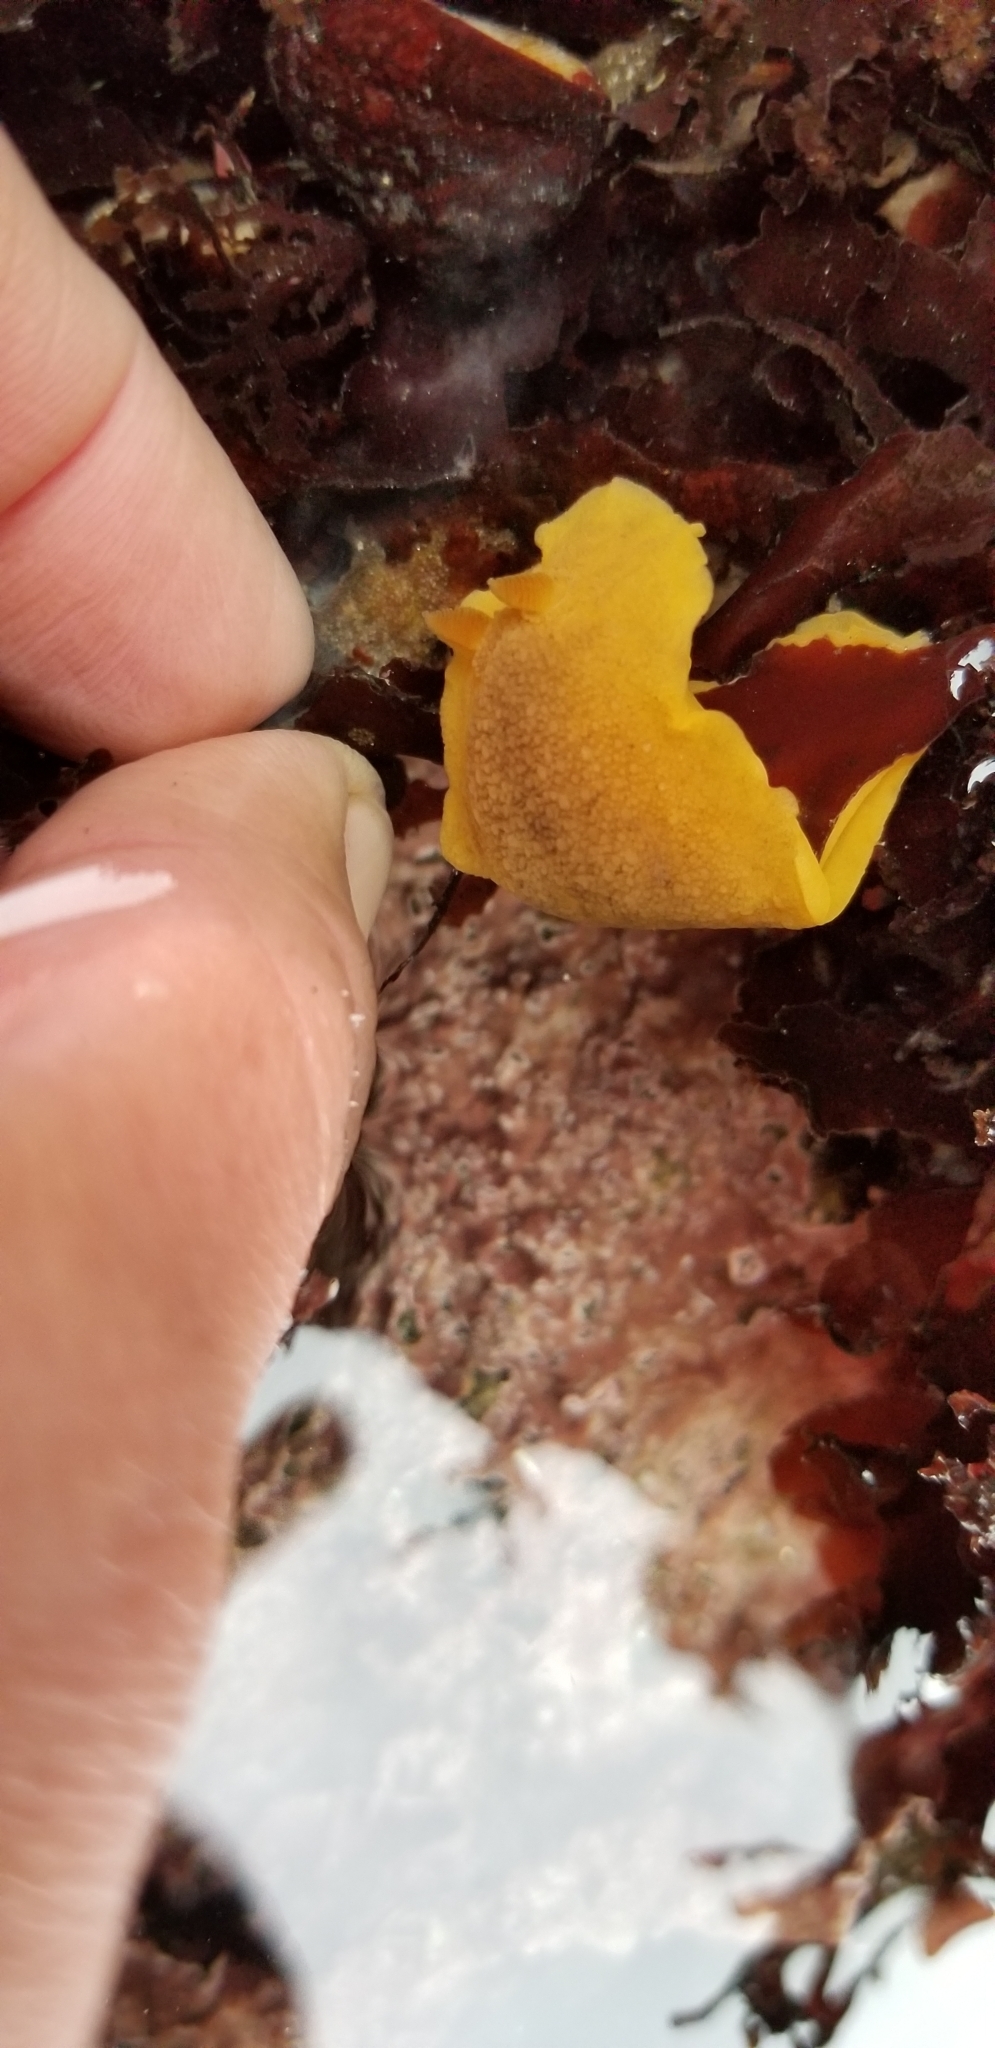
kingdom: Animalia
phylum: Mollusca
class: Gastropoda
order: Nudibranchia
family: Discodorididae
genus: Geitodoris
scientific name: Geitodoris heathi
